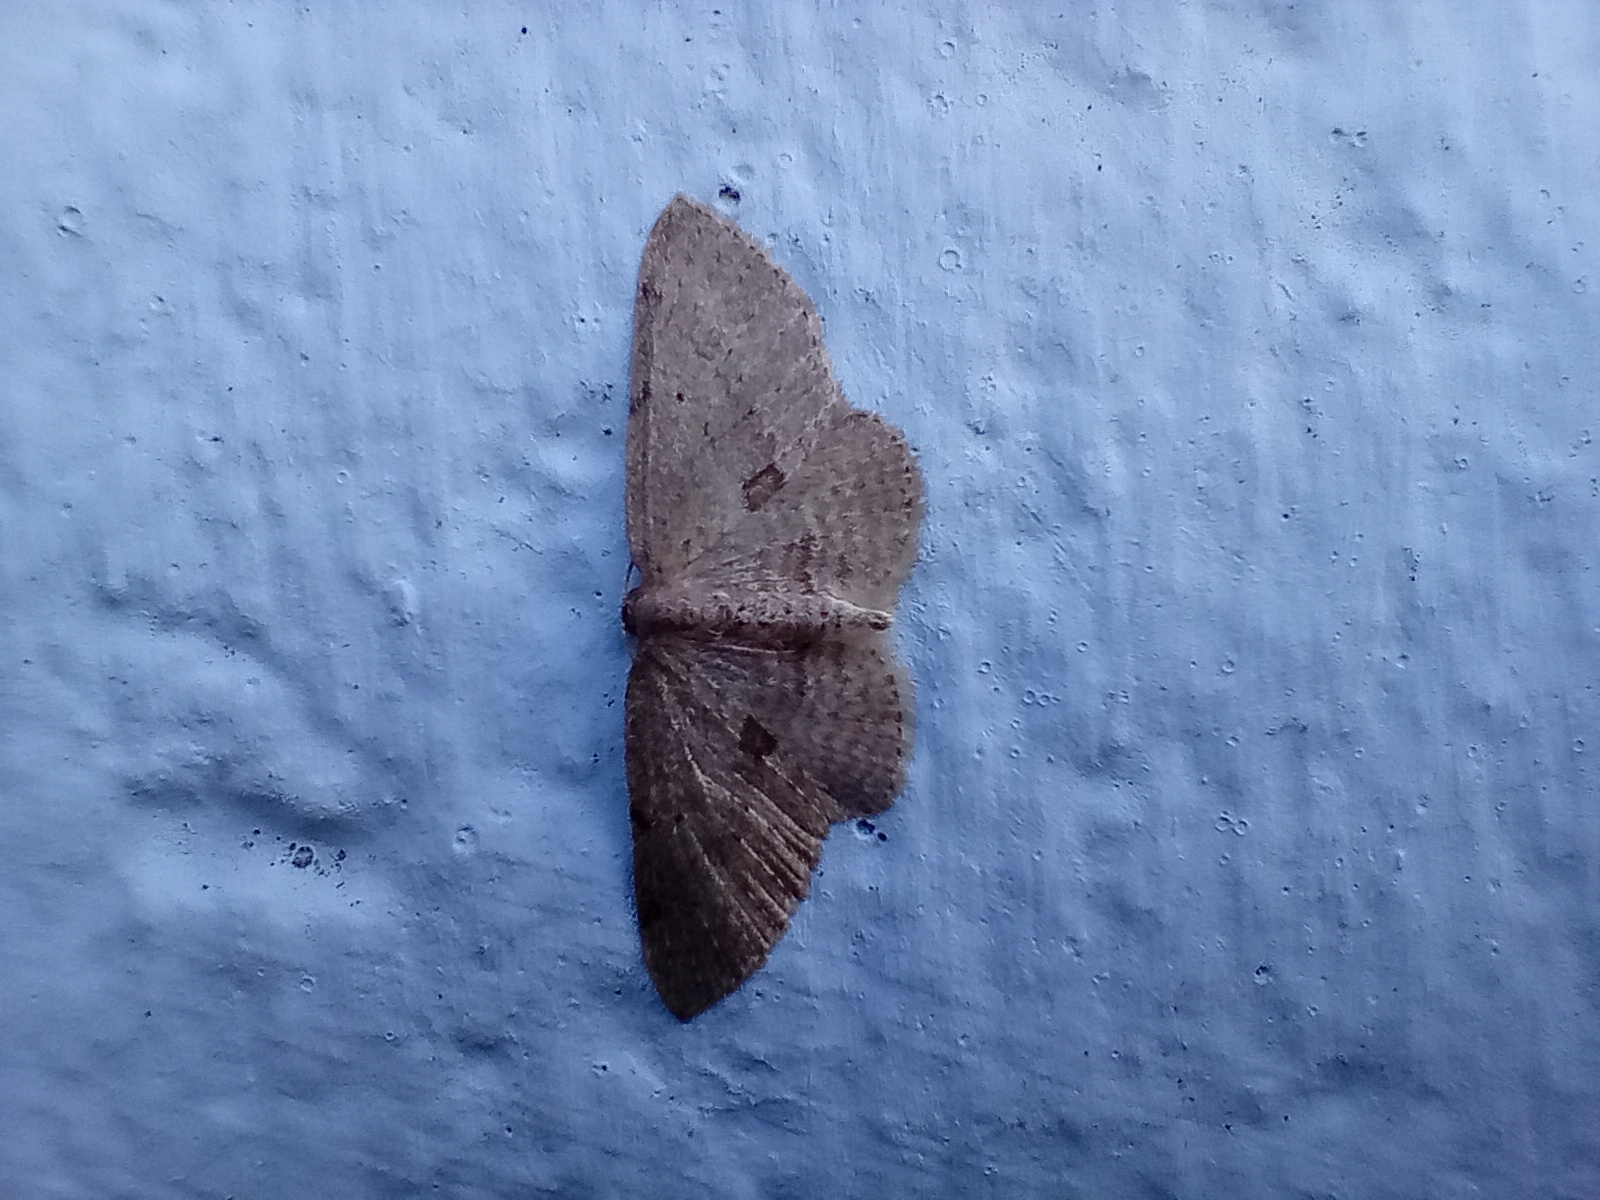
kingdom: Animalia
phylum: Arthropoda
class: Insecta
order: Lepidoptera
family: Geometridae
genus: Poecilasthena
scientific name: Poecilasthena schistaria
